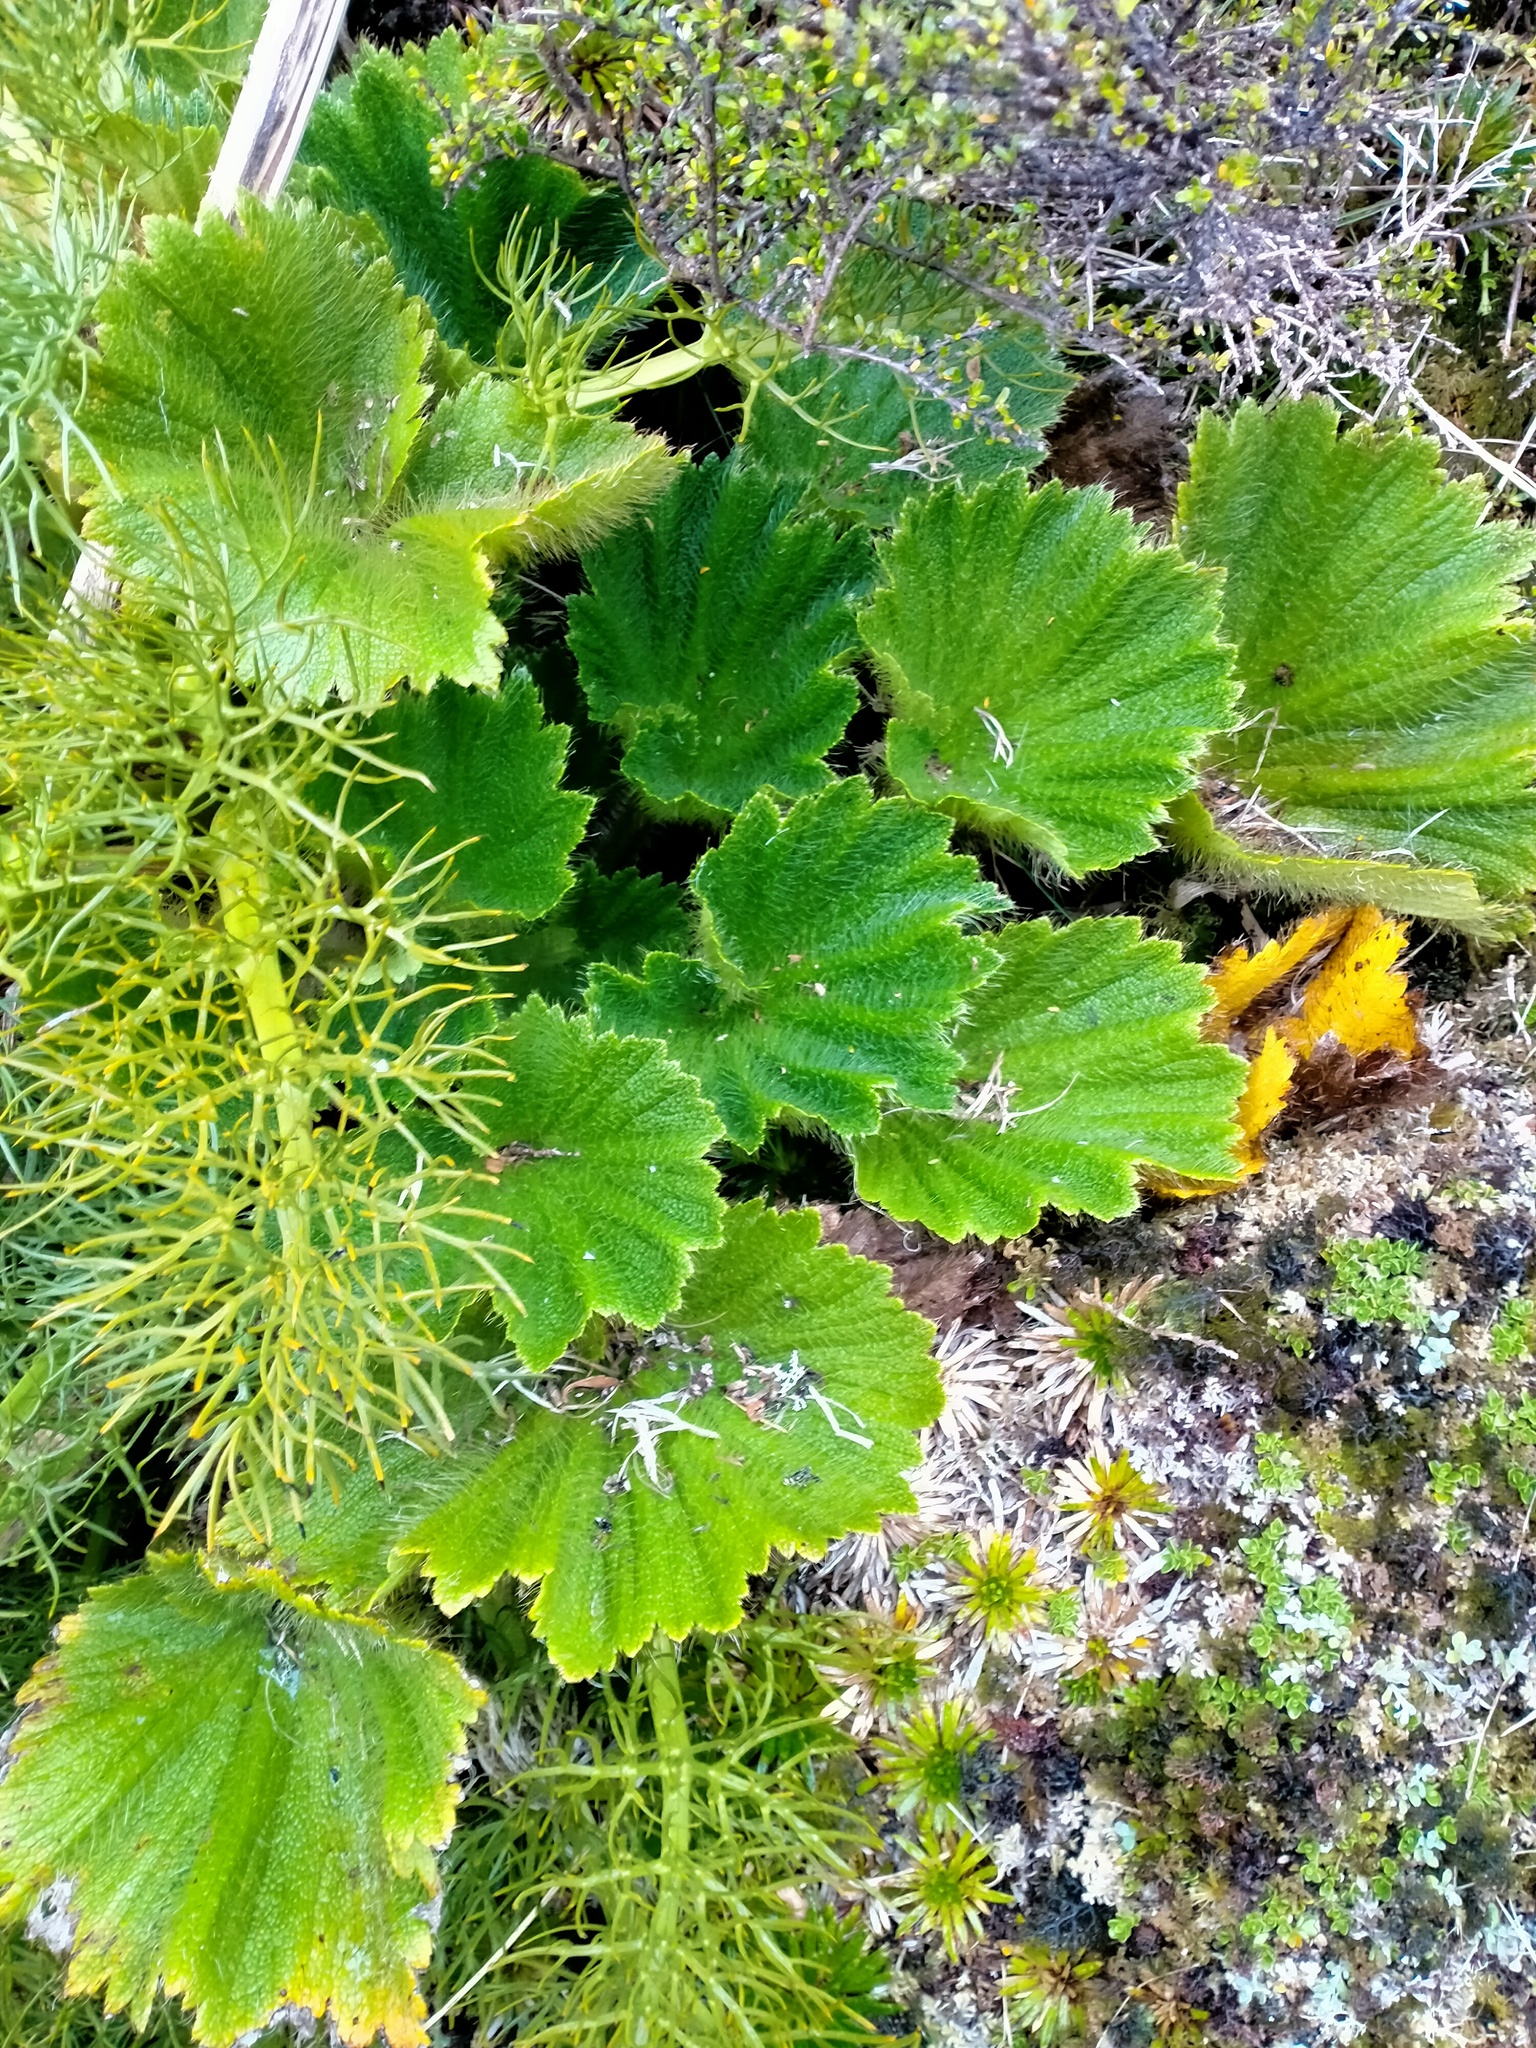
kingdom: Plantae
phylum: Tracheophyta
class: Magnoliopsida
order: Apiales
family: Apiaceae
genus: Azorella
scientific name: Azorella polaris
